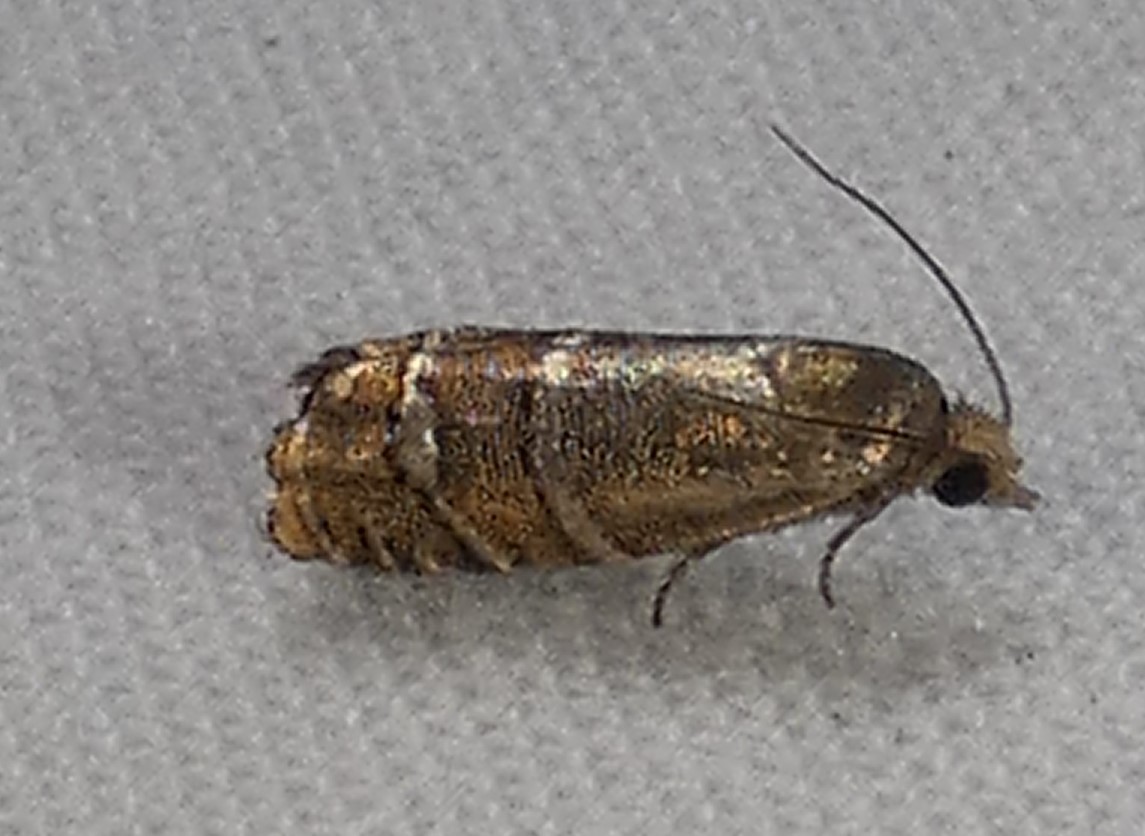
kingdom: Animalia
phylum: Arthropoda
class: Insecta
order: Lepidoptera
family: Tortricidae
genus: Cydia
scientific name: Cydia toreuta
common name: Eastern pine seedworm moth
